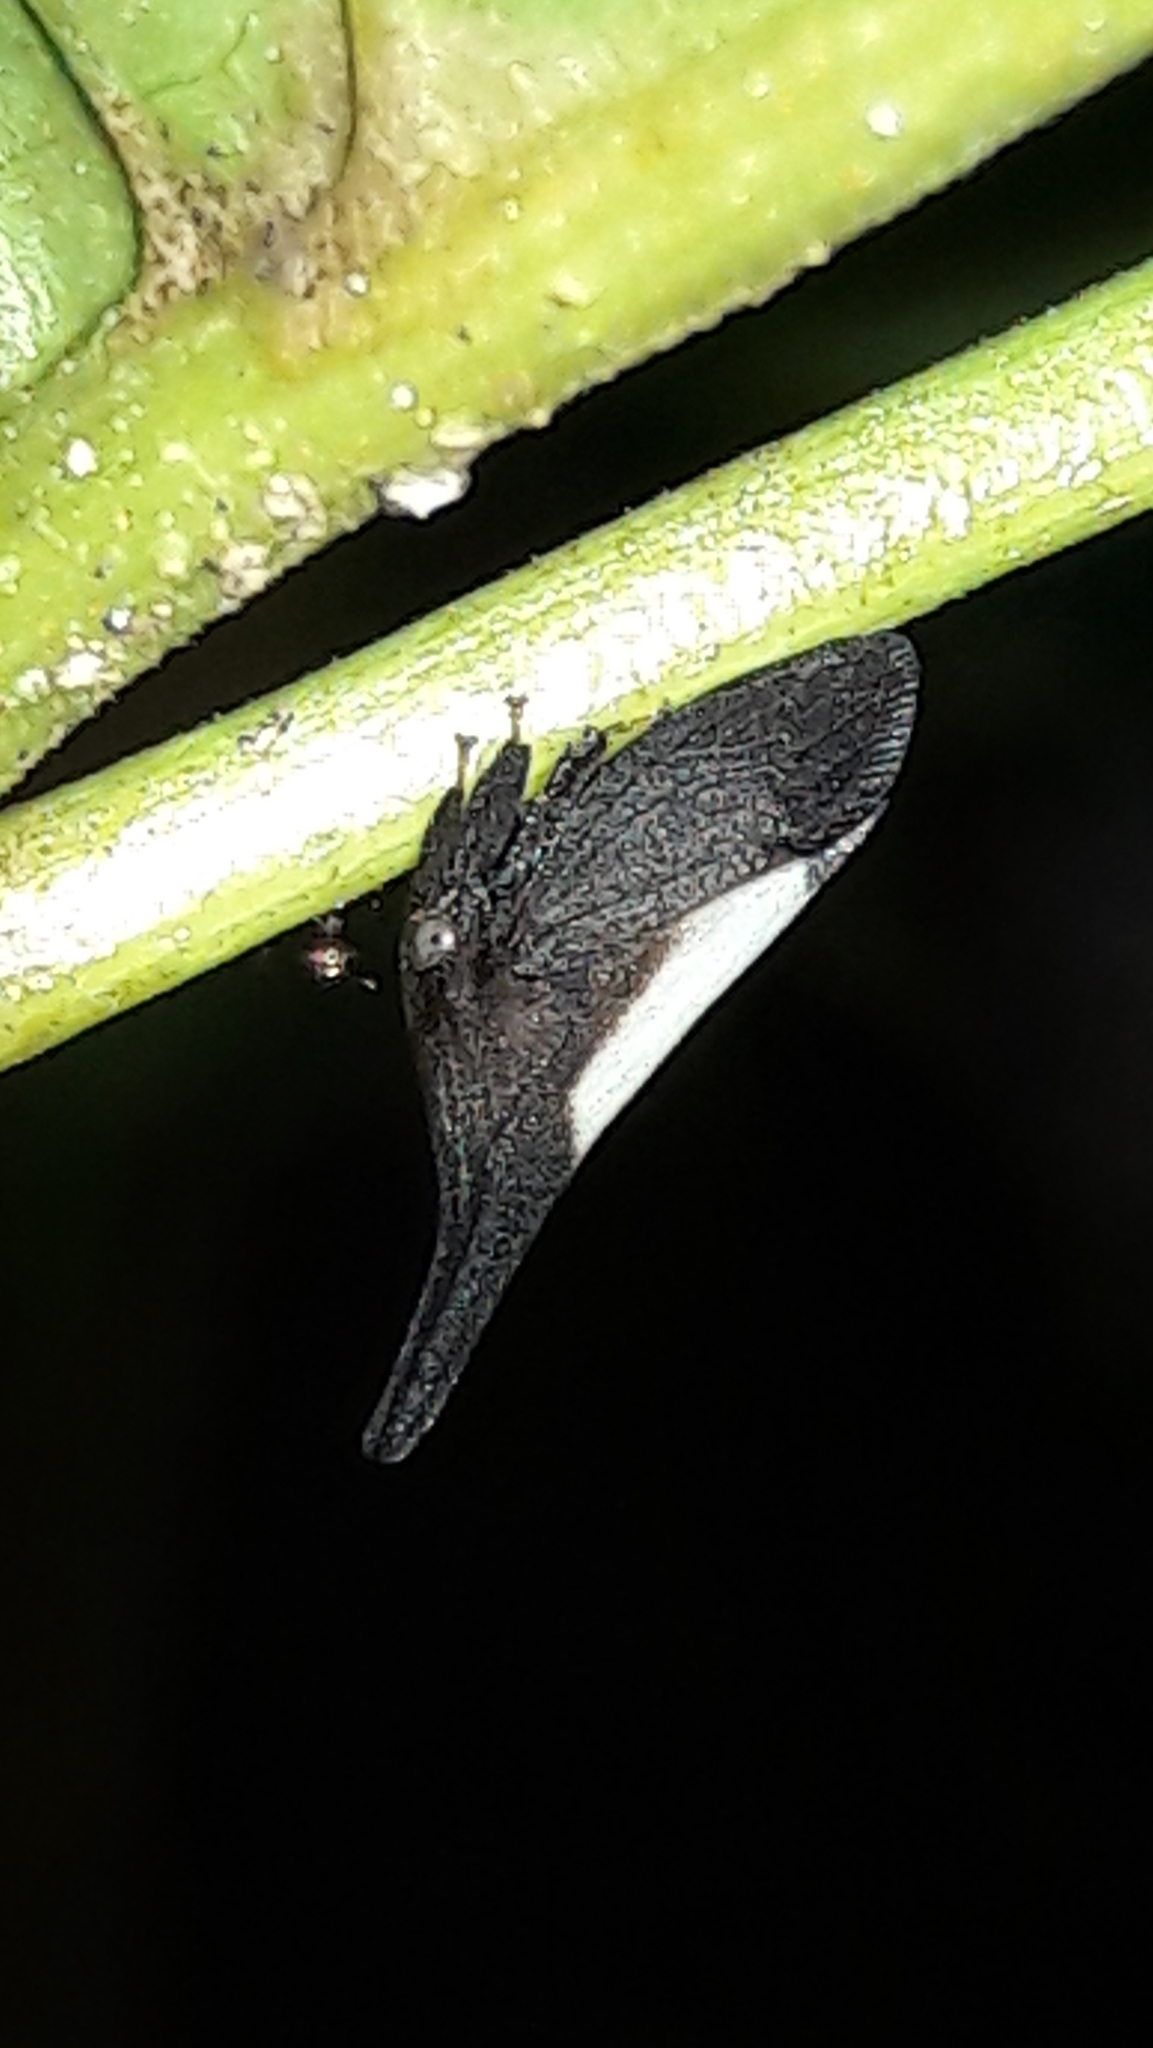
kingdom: Animalia
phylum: Arthropoda
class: Insecta
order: Hemiptera
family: Membracidae
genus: Enchenopa
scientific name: Enchenopa albidorsa
